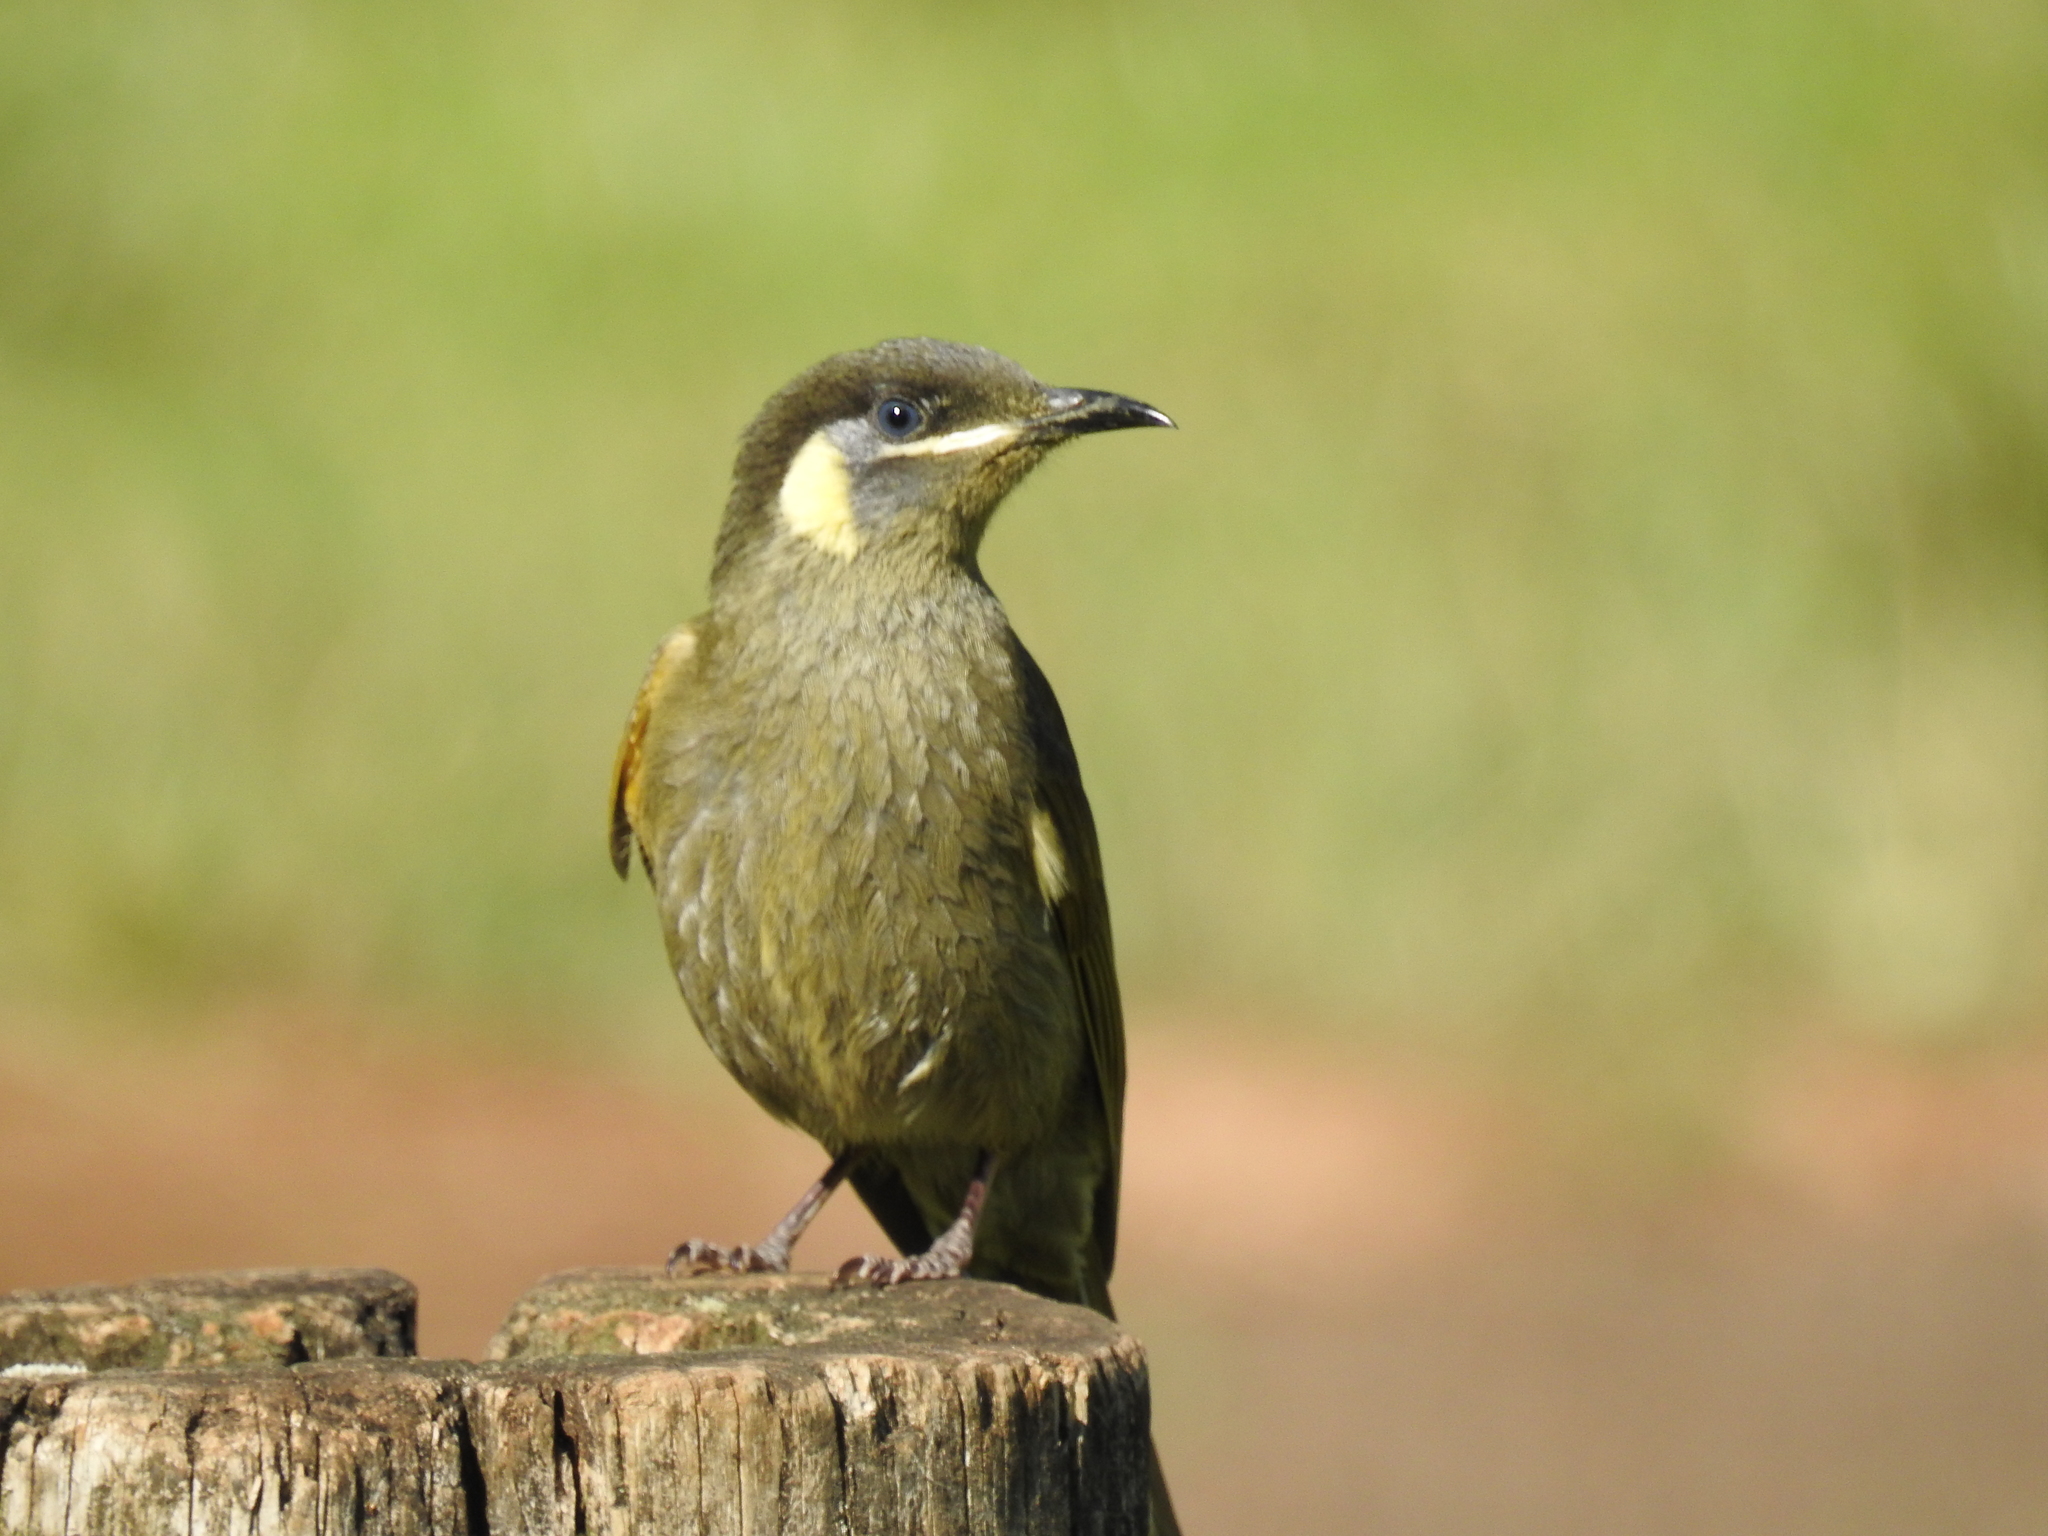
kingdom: Animalia
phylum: Chordata
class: Aves
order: Passeriformes
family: Meliphagidae
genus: Meliphaga
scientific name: Meliphaga lewinii
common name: Lewin's honeyeater
